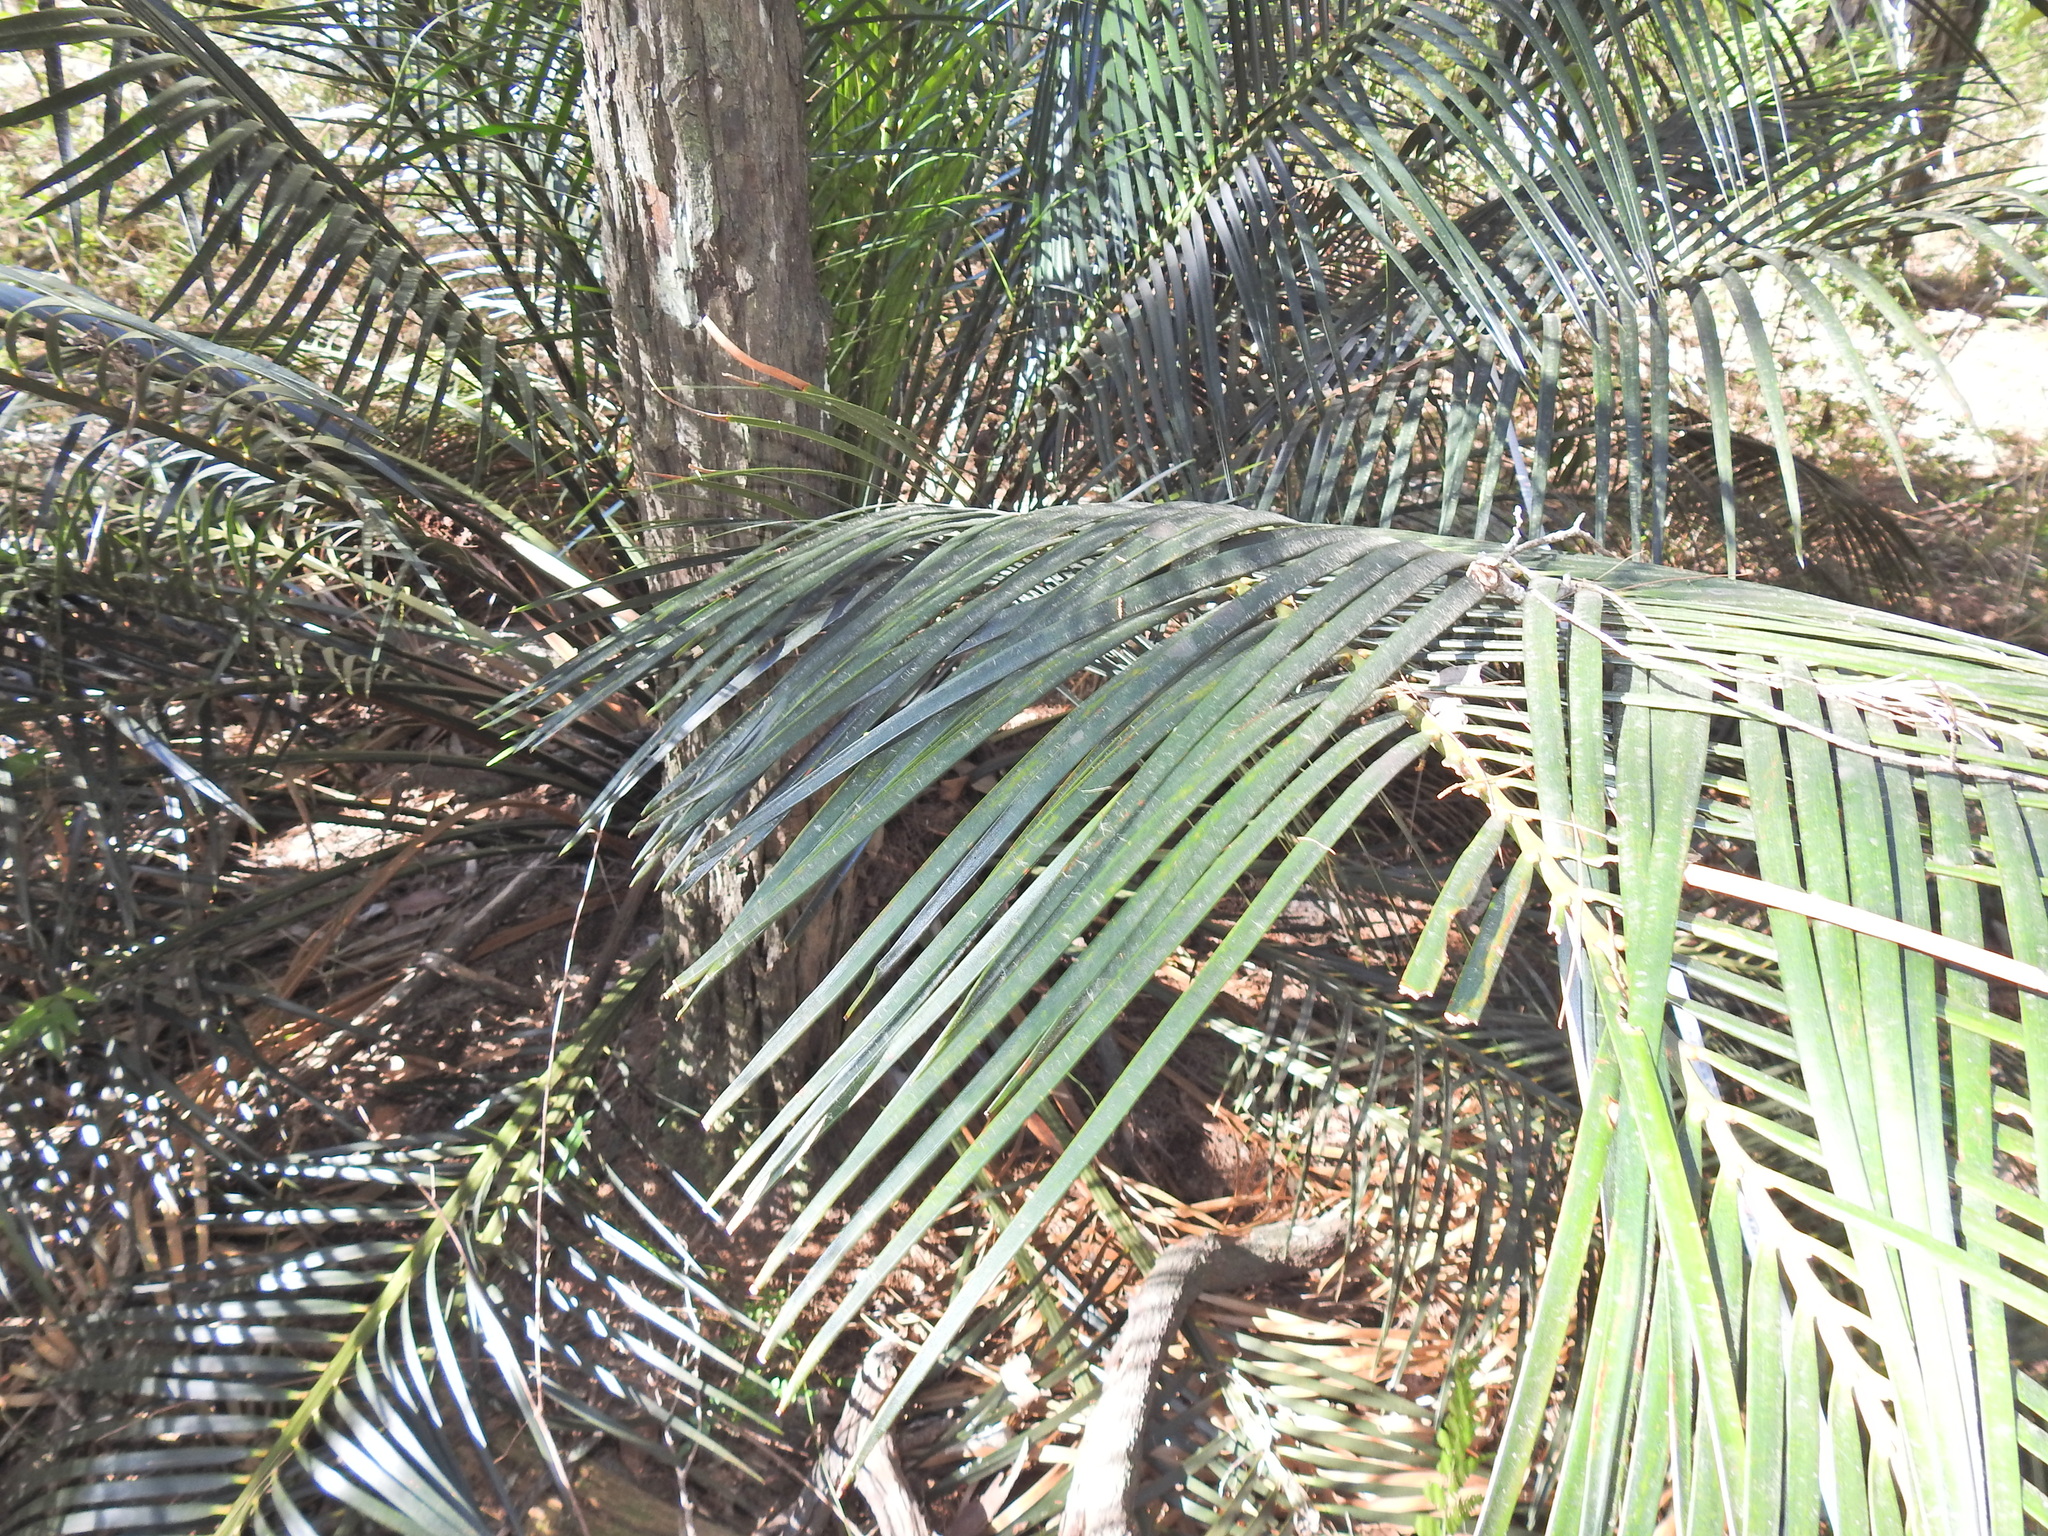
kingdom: Plantae
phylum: Tracheophyta
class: Cycadopsida
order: Cycadales
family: Zamiaceae
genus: Macrozamia
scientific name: Macrozamia douglasii
